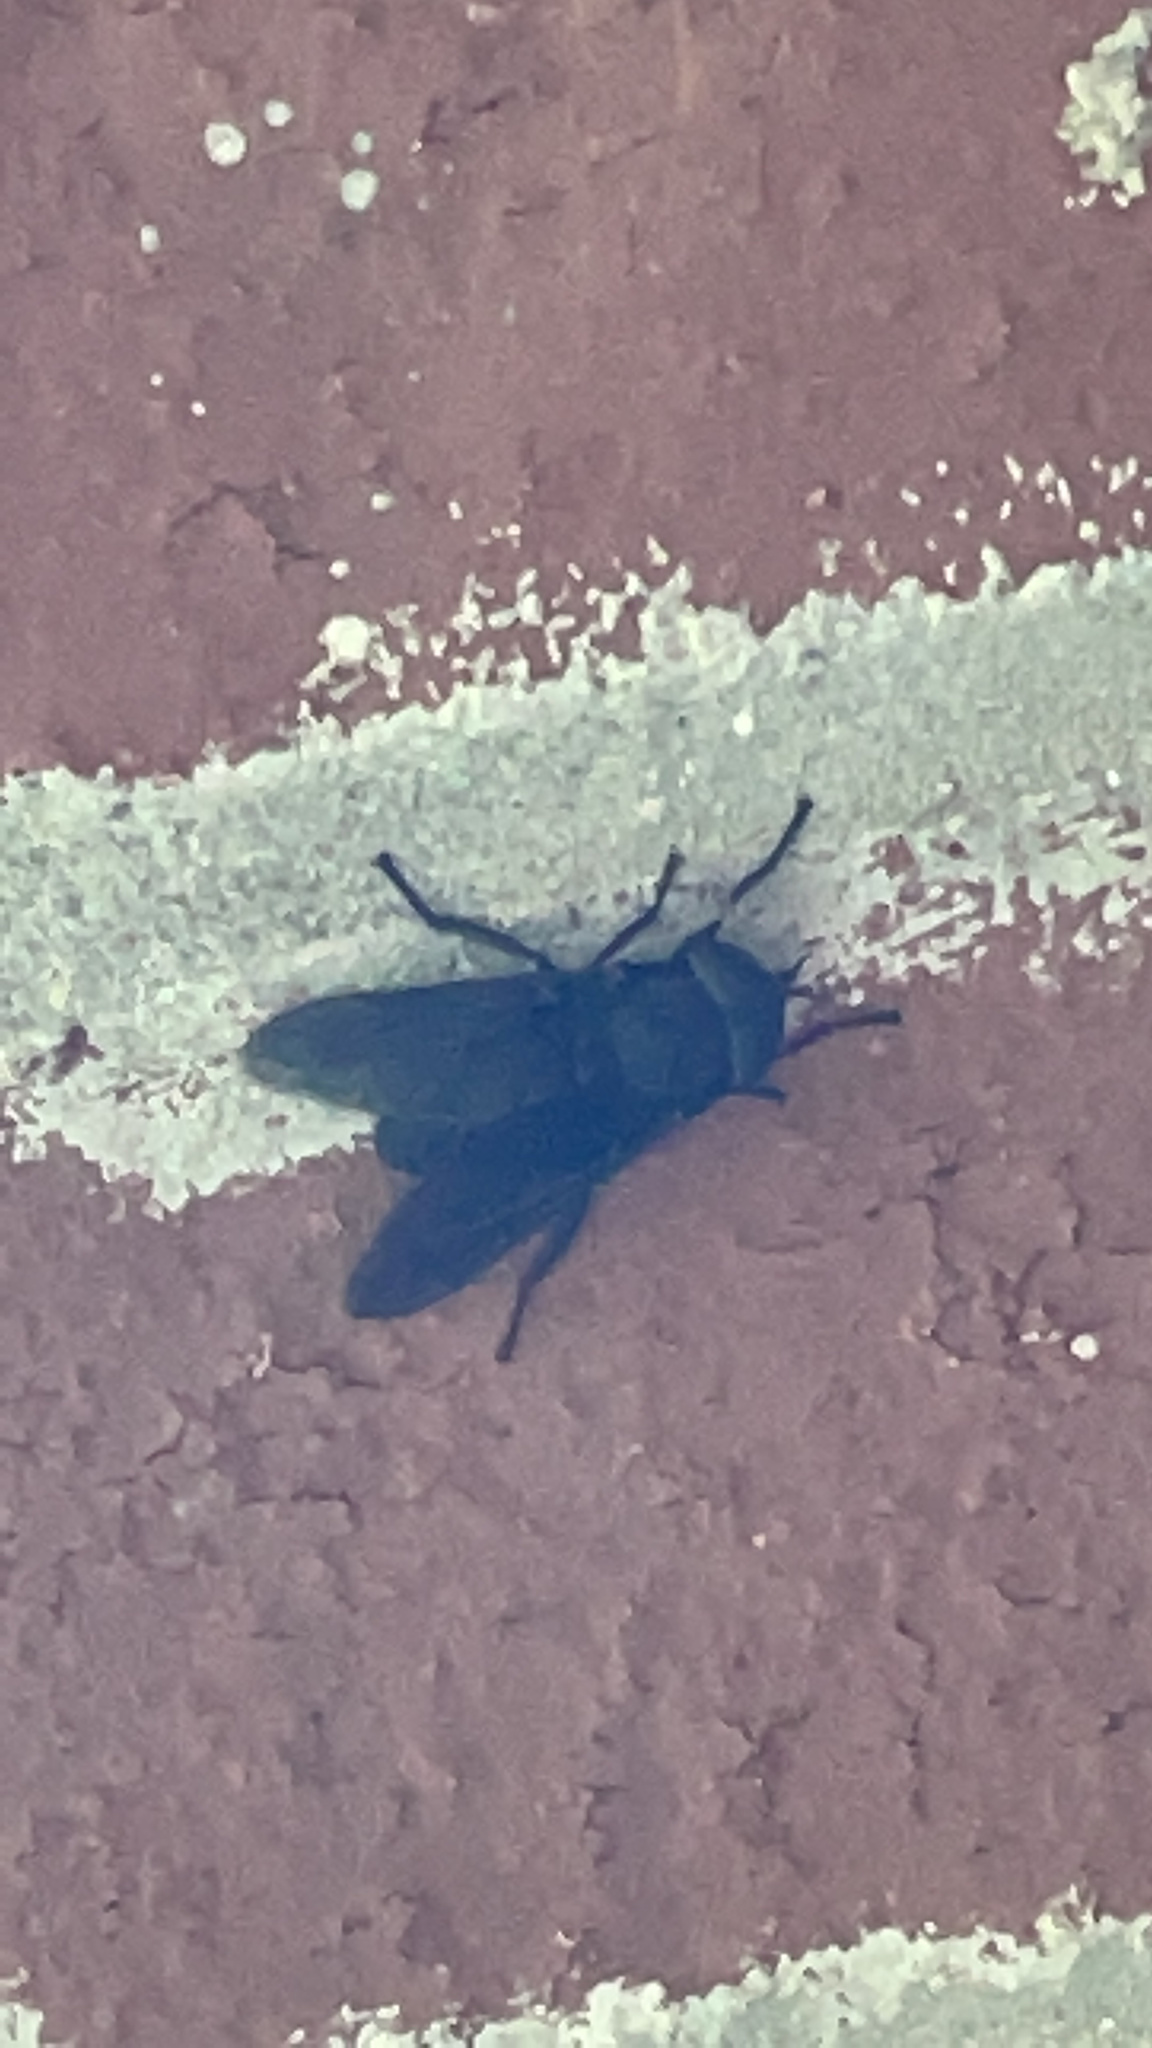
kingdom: Animalia
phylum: Arthropoda
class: Insecta
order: Diptera
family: Tabanidae
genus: Tabanus
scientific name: Tabanus atratus
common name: Black horse fly
